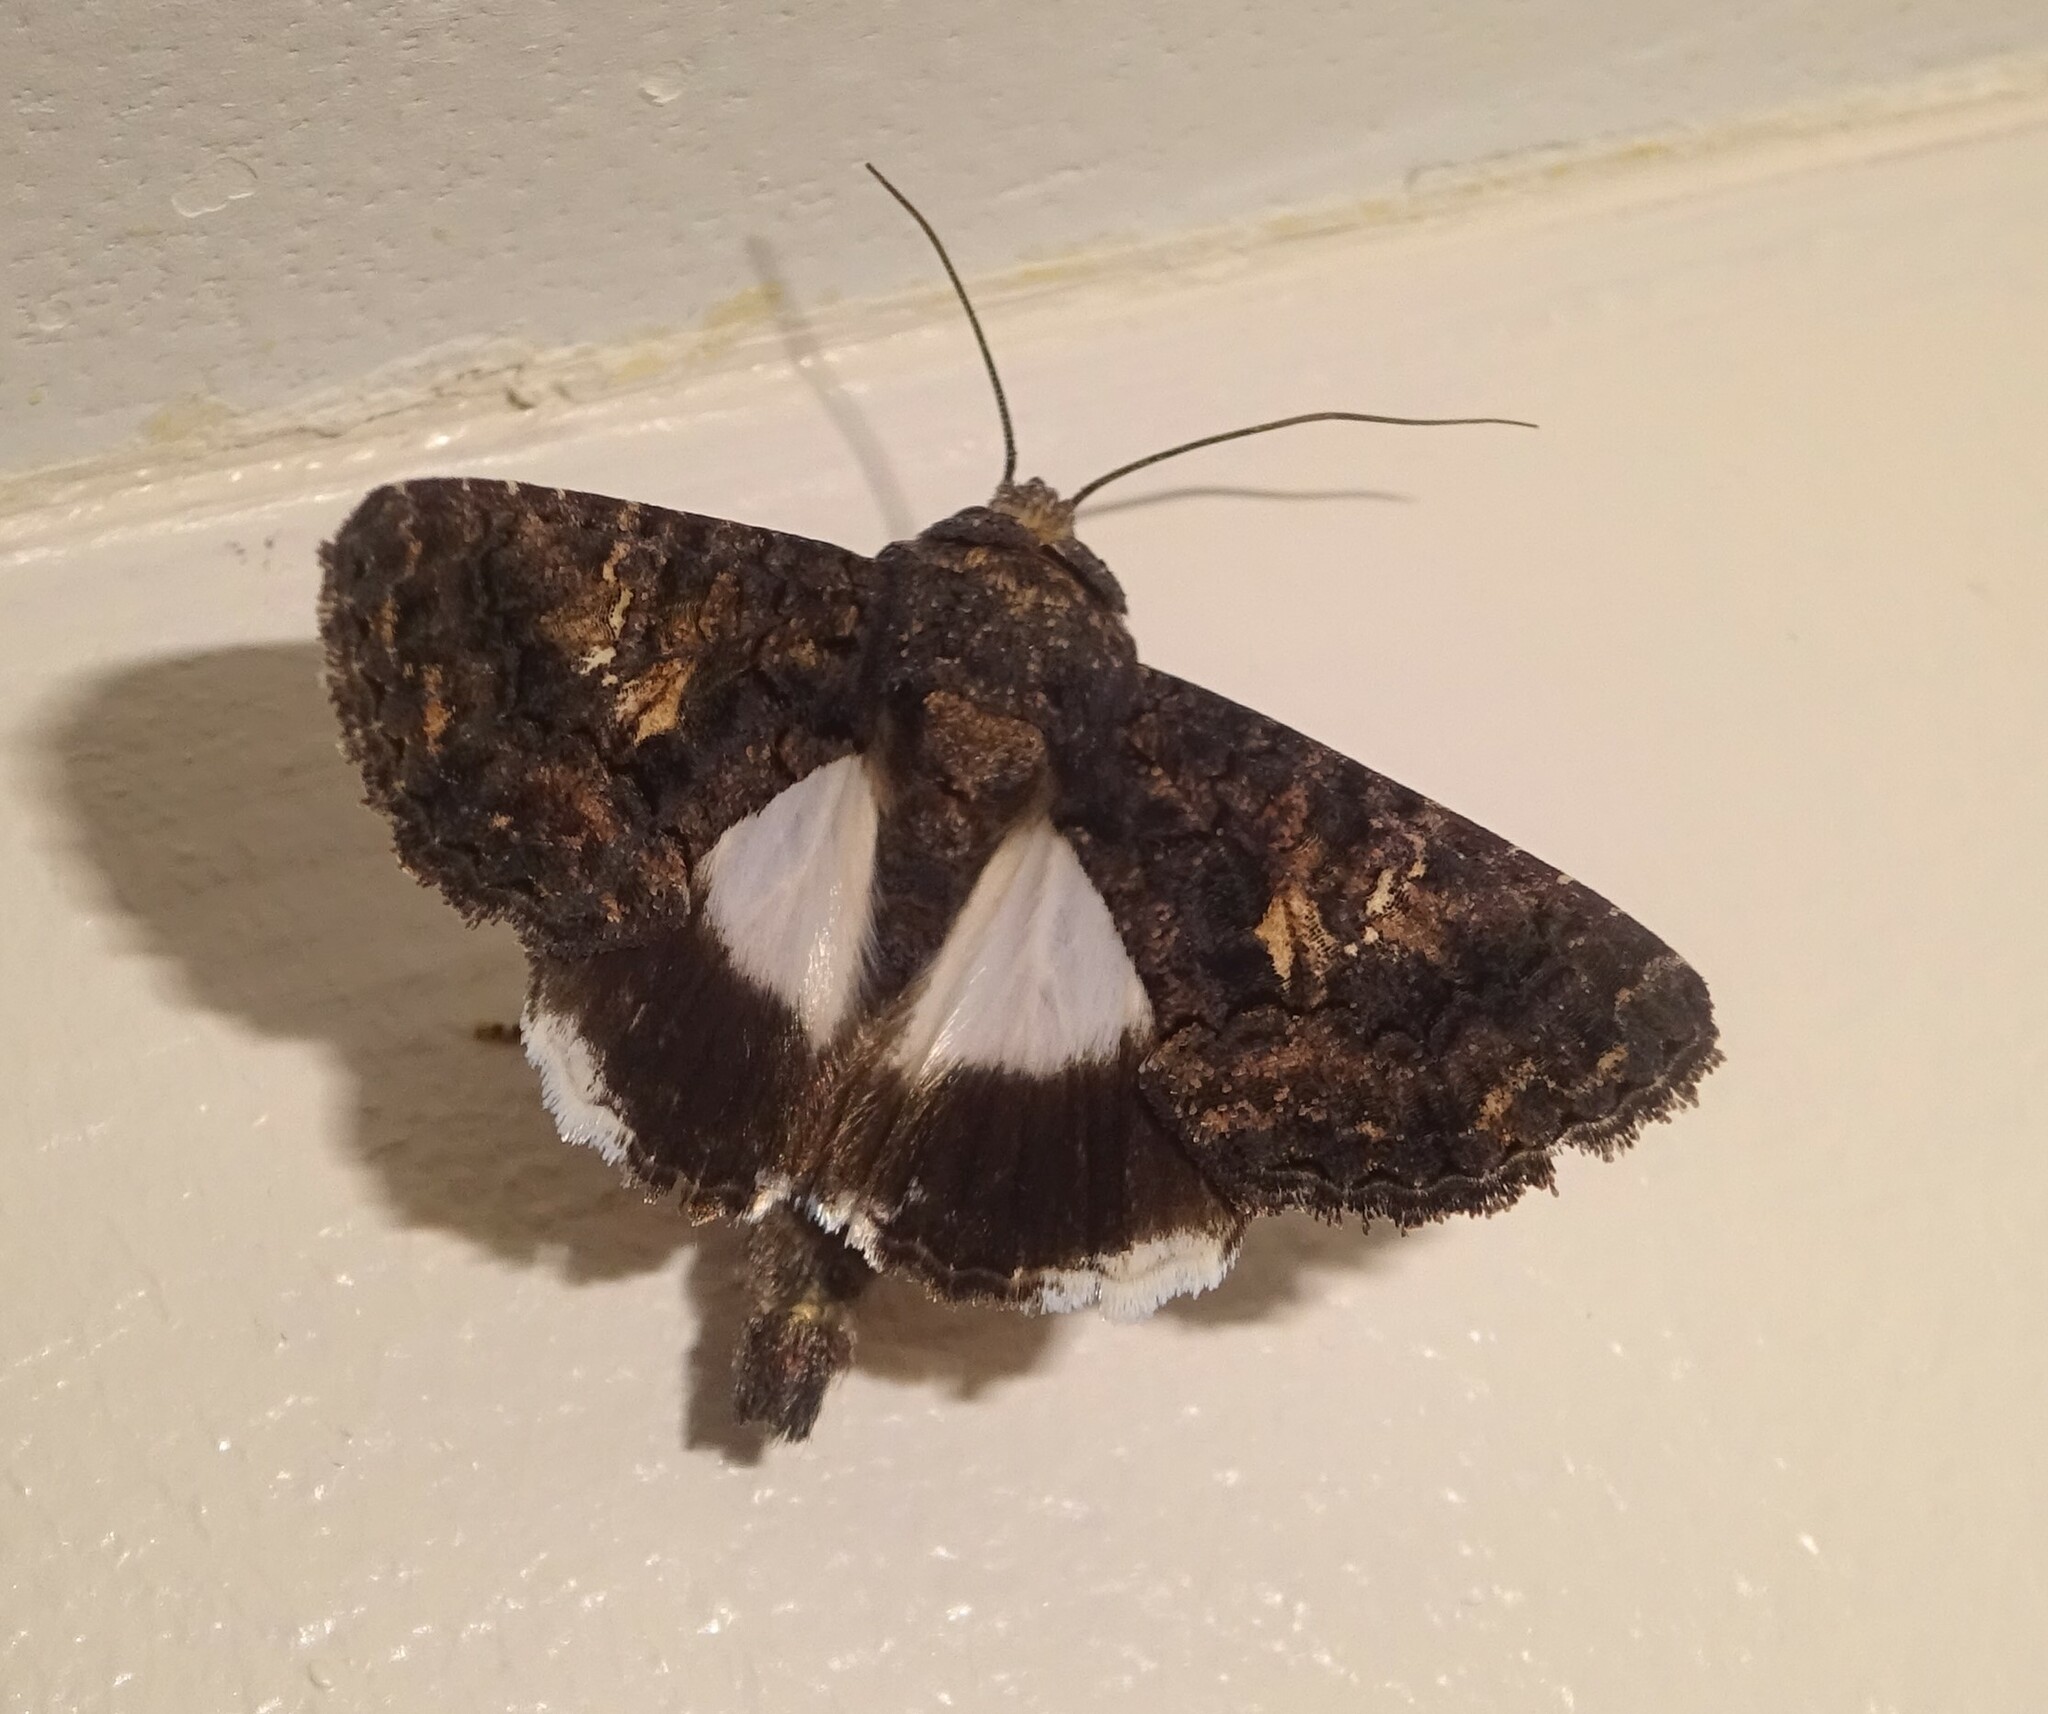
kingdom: Animalia
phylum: Arthropoda
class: Insecta
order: Lepidoptera
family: Noctuidae
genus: Aedia
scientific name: Aedia leucomelas
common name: Sorcerer
